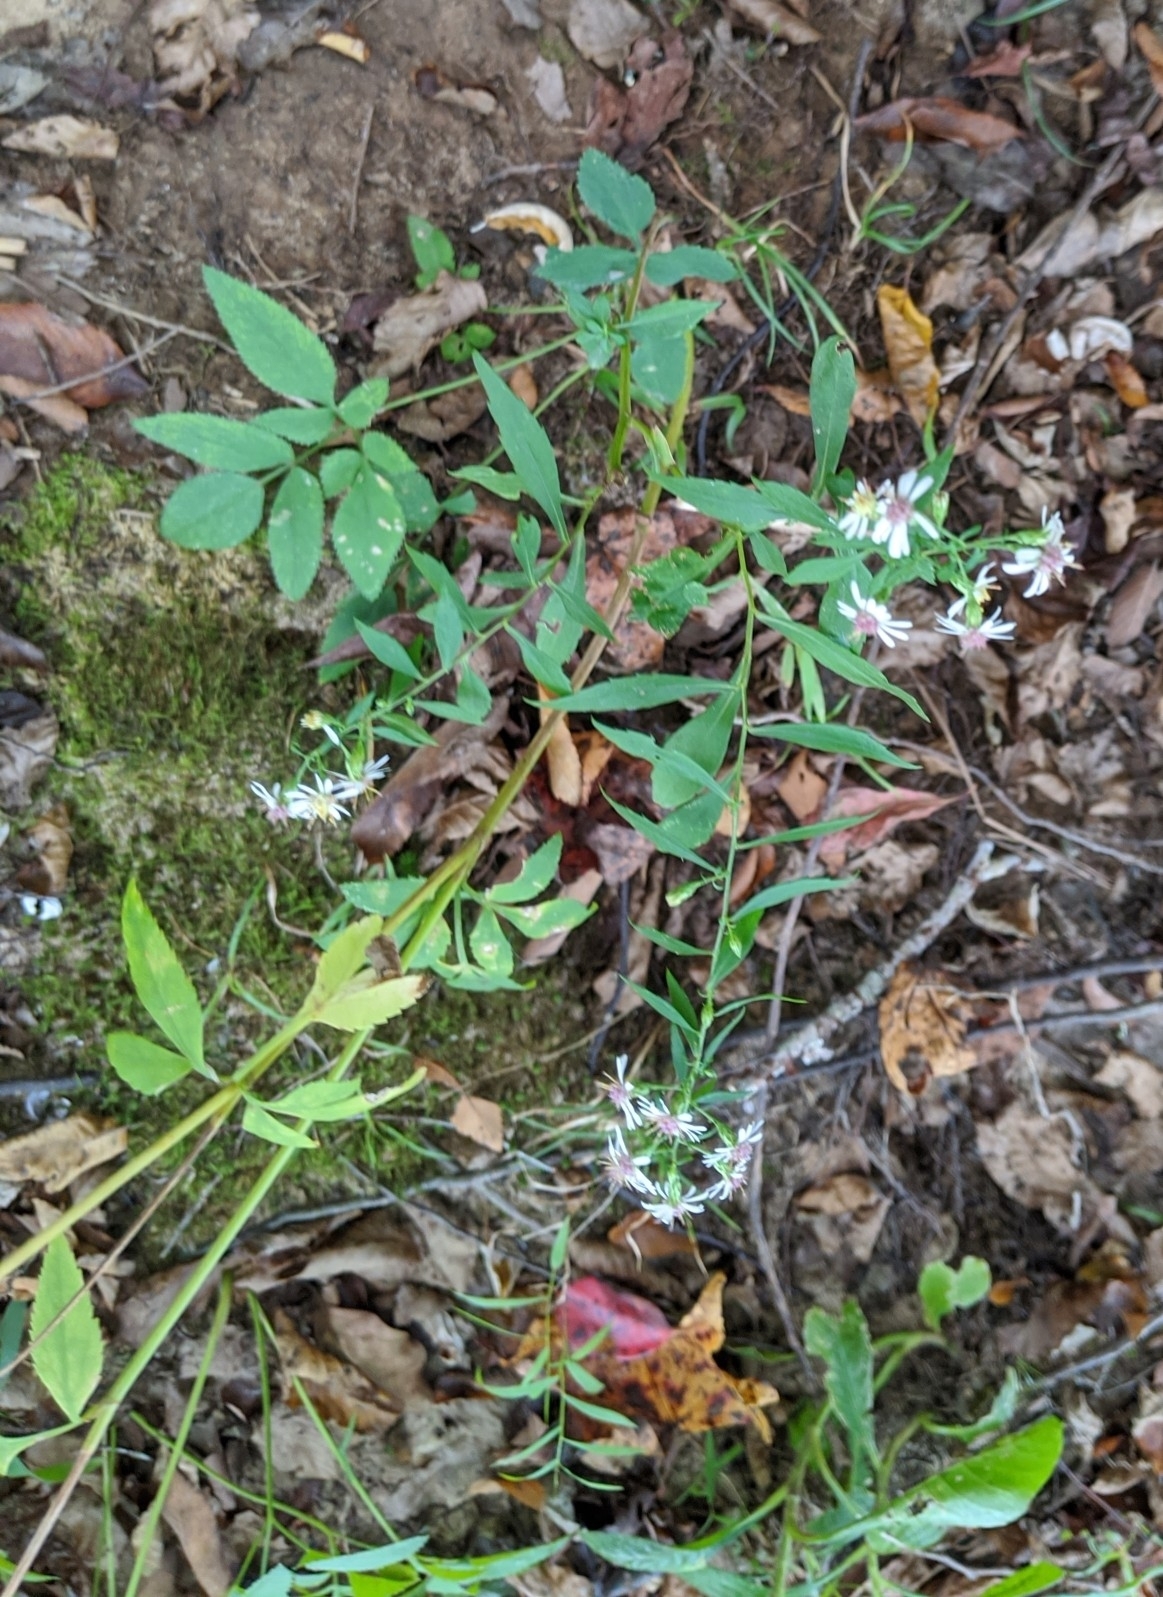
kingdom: Plantae
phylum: Tracheophyta
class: Magnoliopsida
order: Asterales
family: Asteraceae
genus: Symphyotrichum
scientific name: Symphyotrichum lateriflorum
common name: Calico aster
